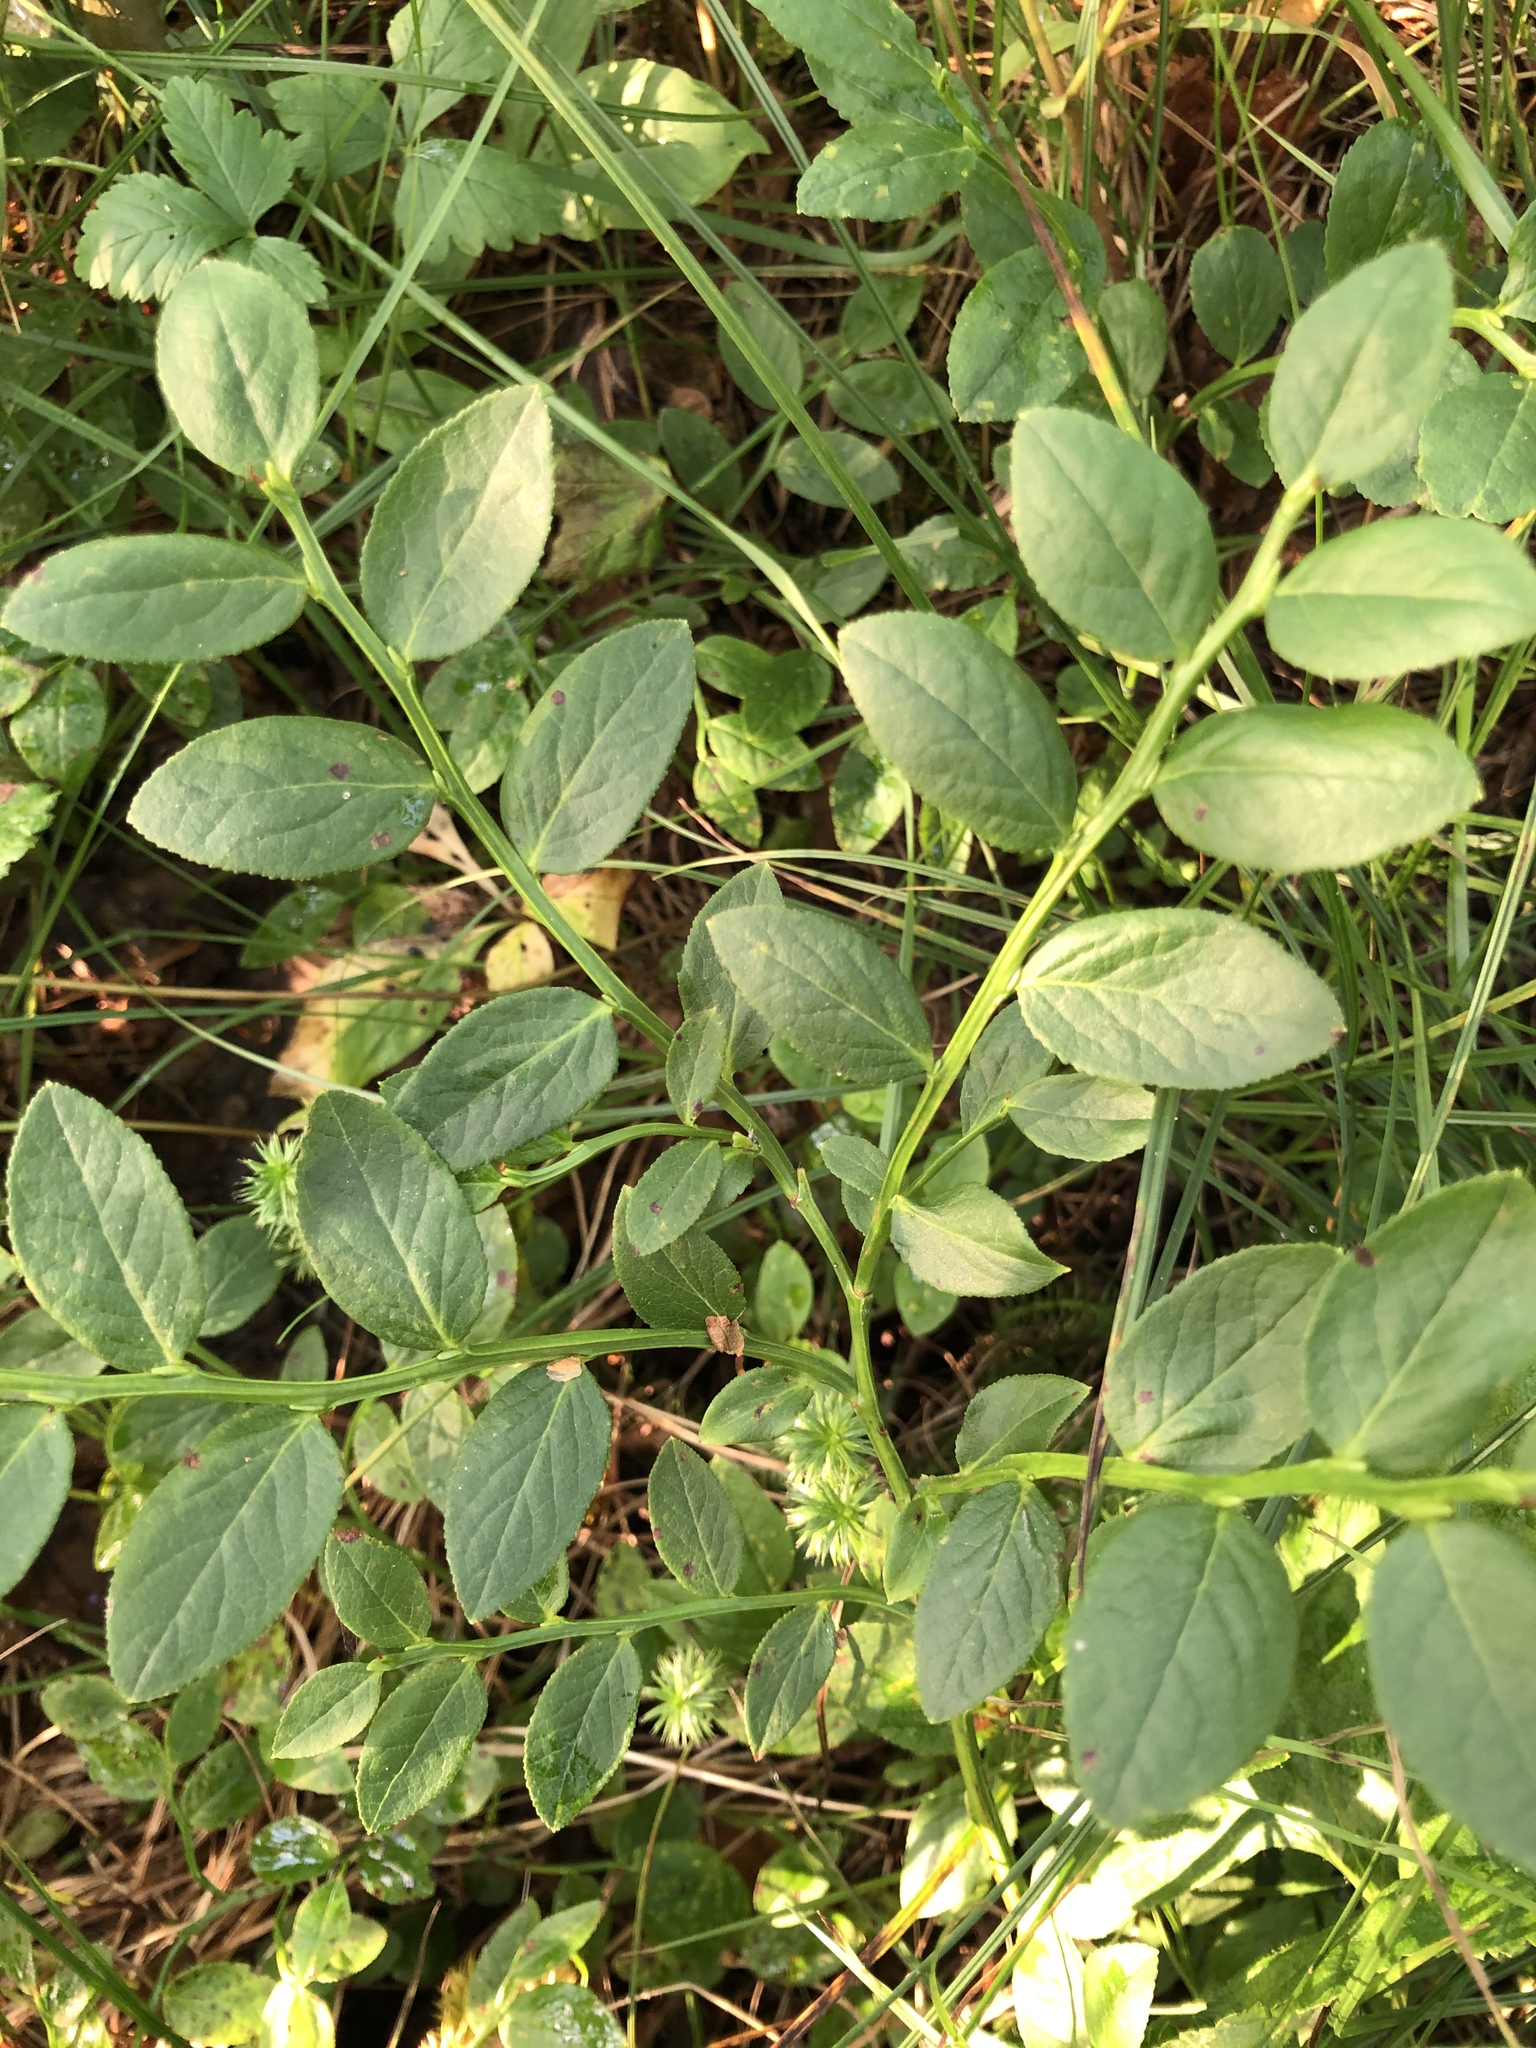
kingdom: Plantae
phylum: Tracheophyta
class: Magnoliopsida
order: Ericales
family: Ericaceae
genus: Vaccinium
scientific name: Vaccinium myrtillus
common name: Bilberry
